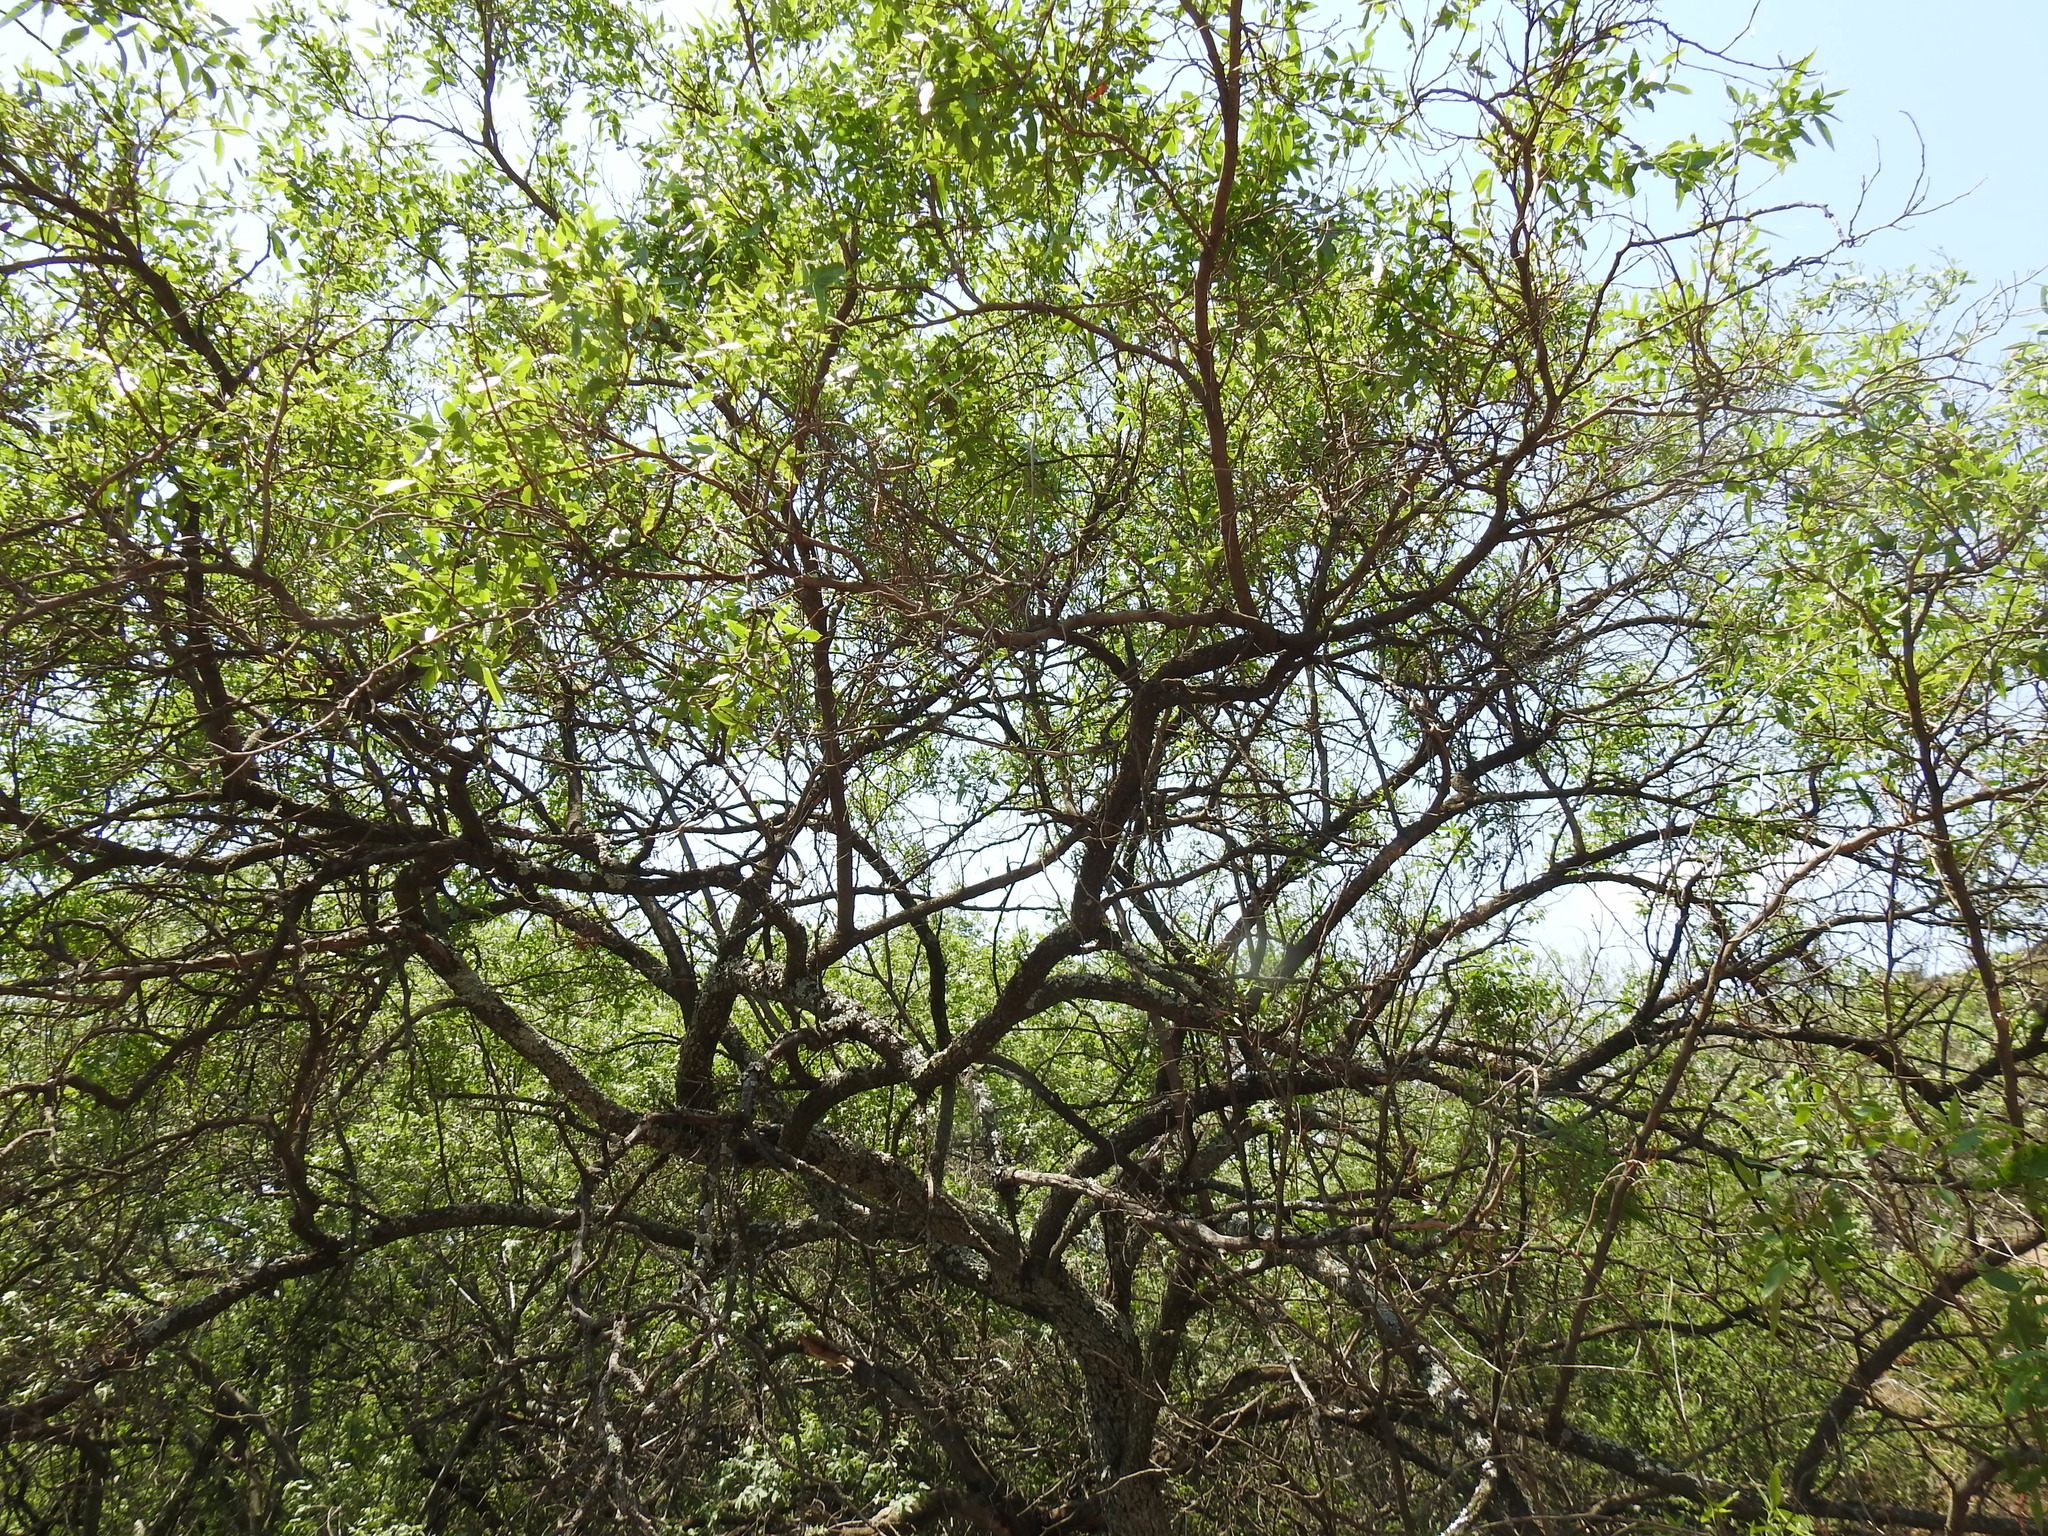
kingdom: Plantae
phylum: Tracheophyta
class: Magnoliopsida
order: Sapindales
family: Anacardiaceae
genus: Searsia
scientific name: Searsia leptodictya
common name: Mountain karee
